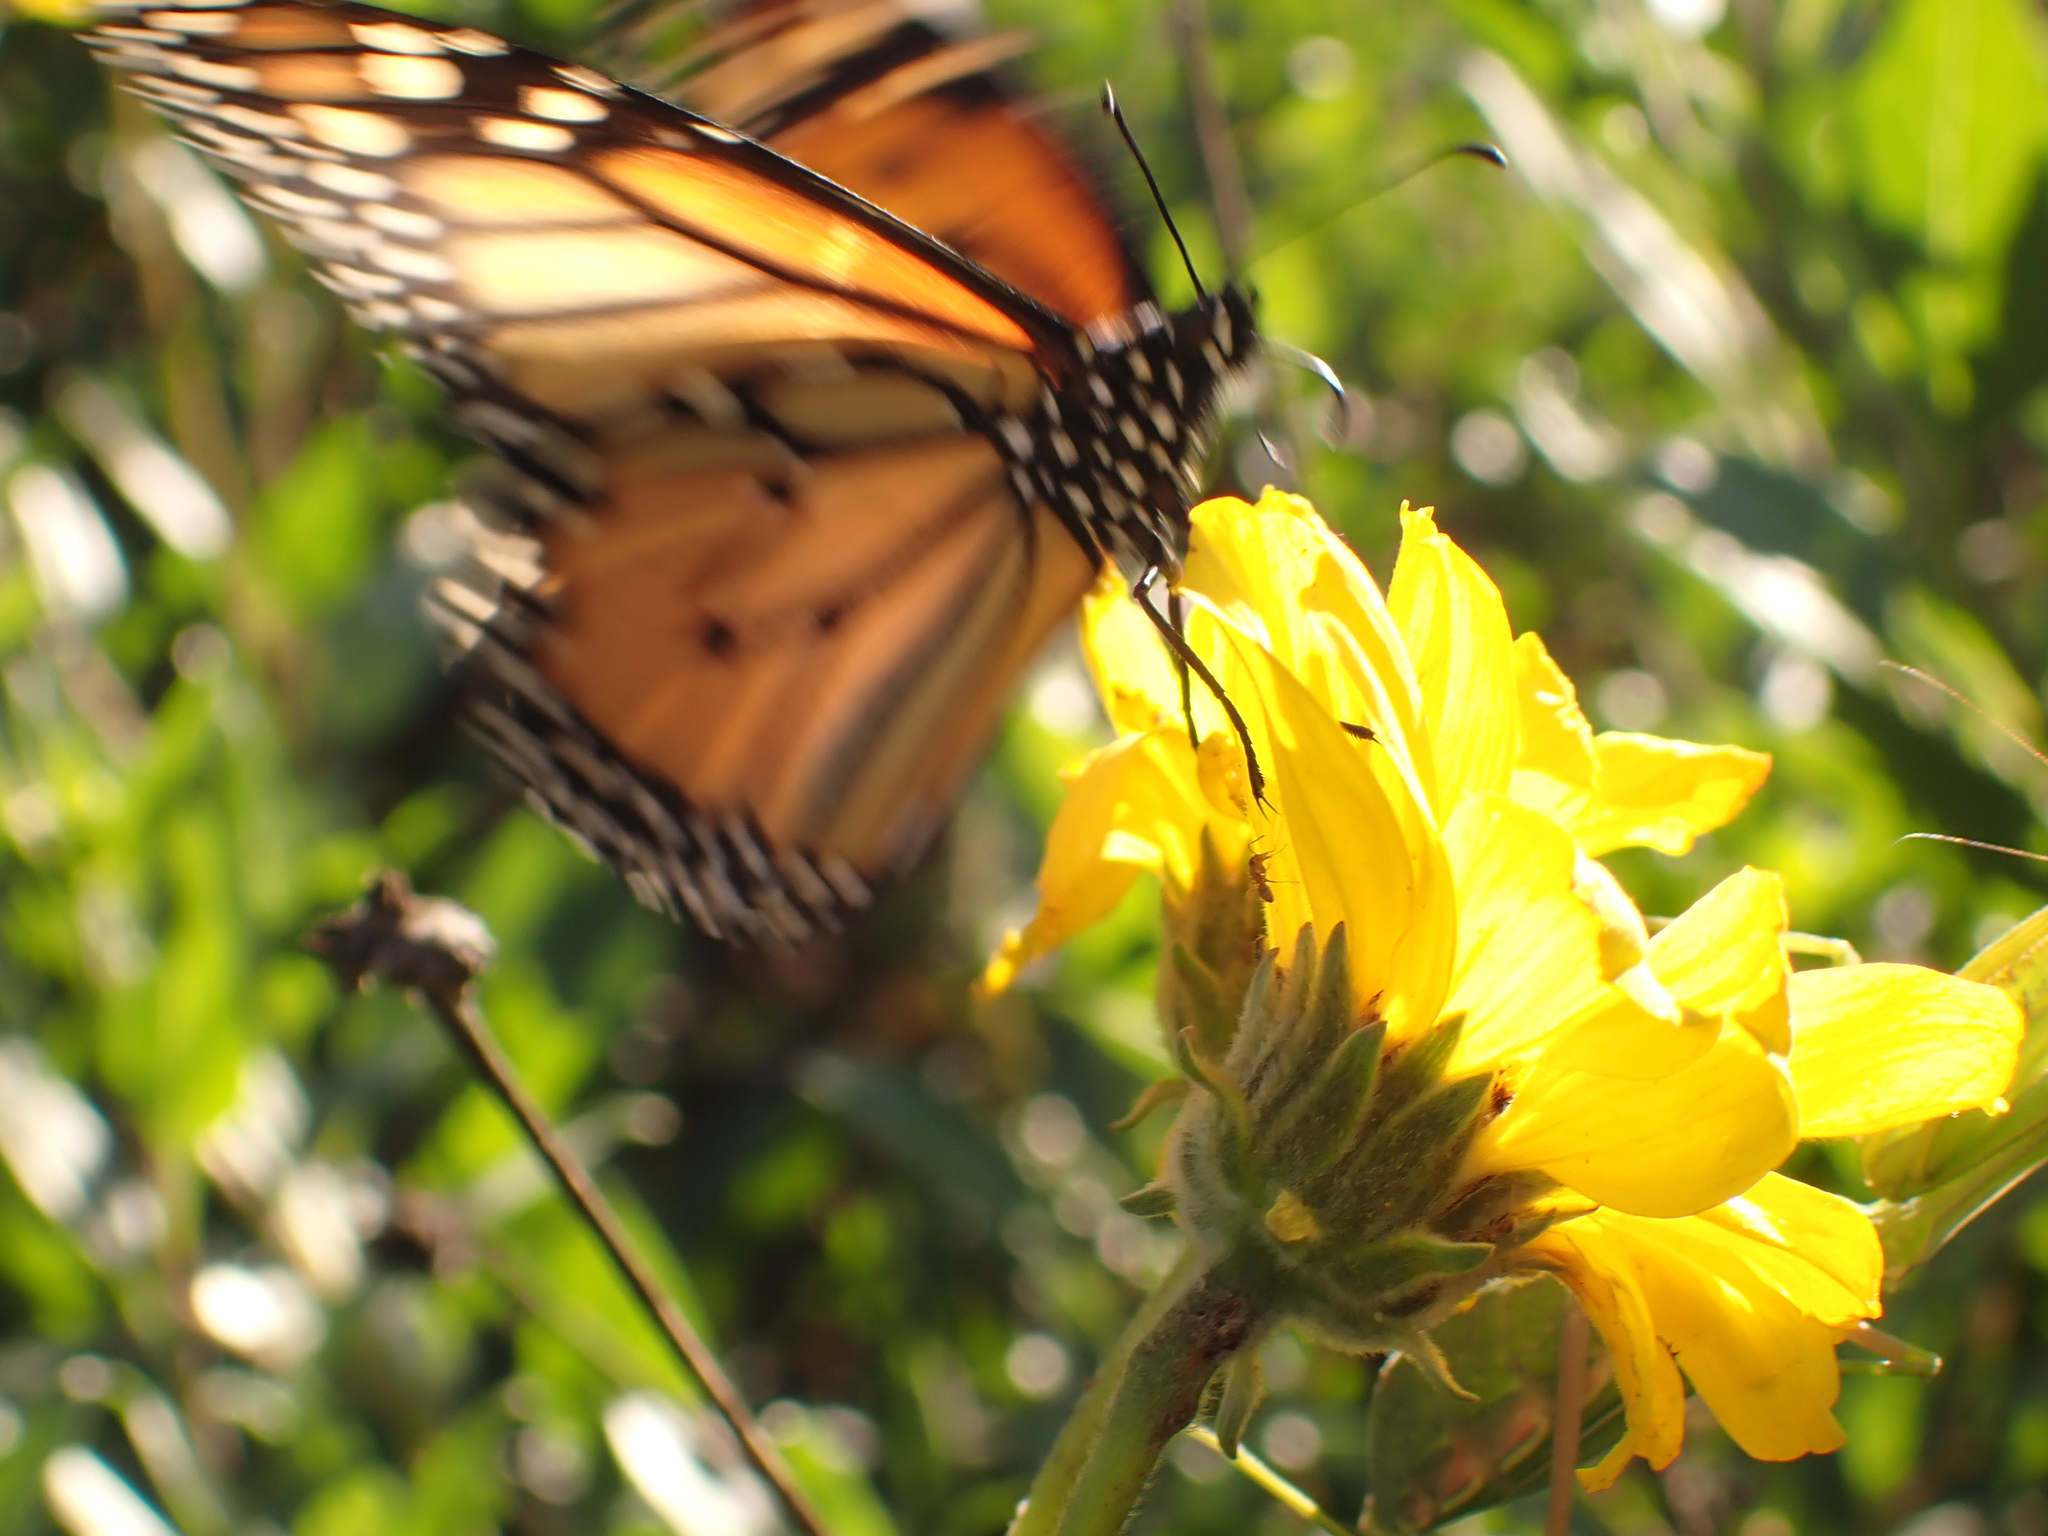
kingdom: Animalia
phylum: Arthropoda
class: Insecta
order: Lepidoptera
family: Nymphalidae
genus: Danaus
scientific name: Danaus plexippus
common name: Monarch
